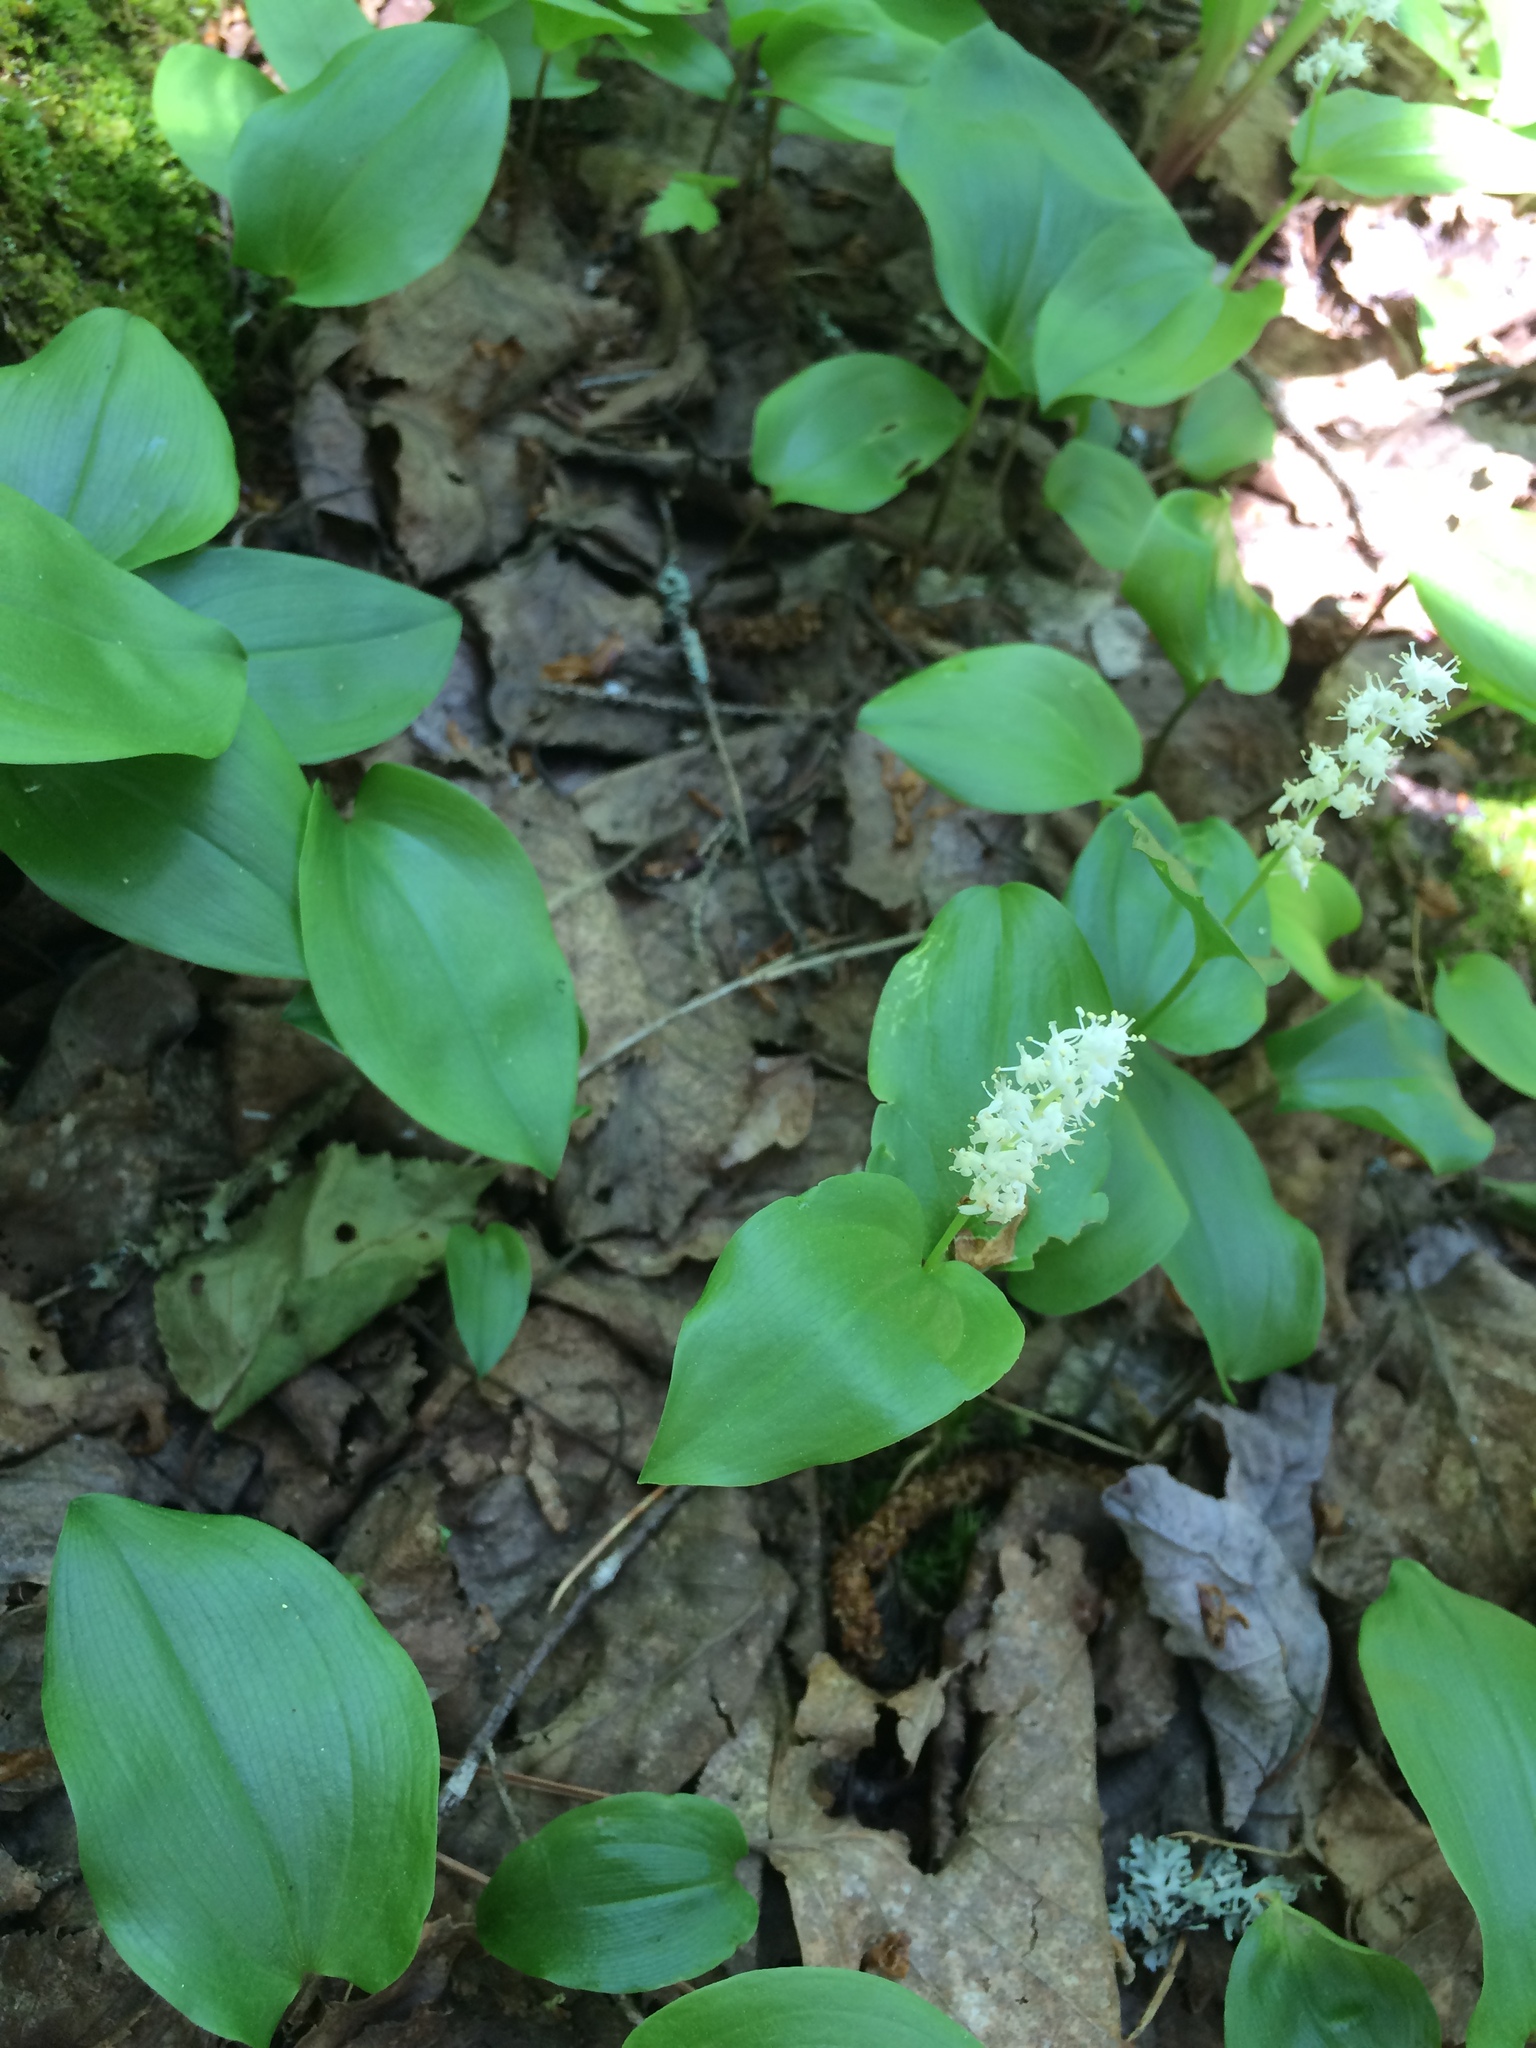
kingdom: Plantae
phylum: Tracheophyta
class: Liliopsida
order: Asparagales
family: Asparagaceae
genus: Maianthemum
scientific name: Maianthemum canadense
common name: False lily-of-the-valley
